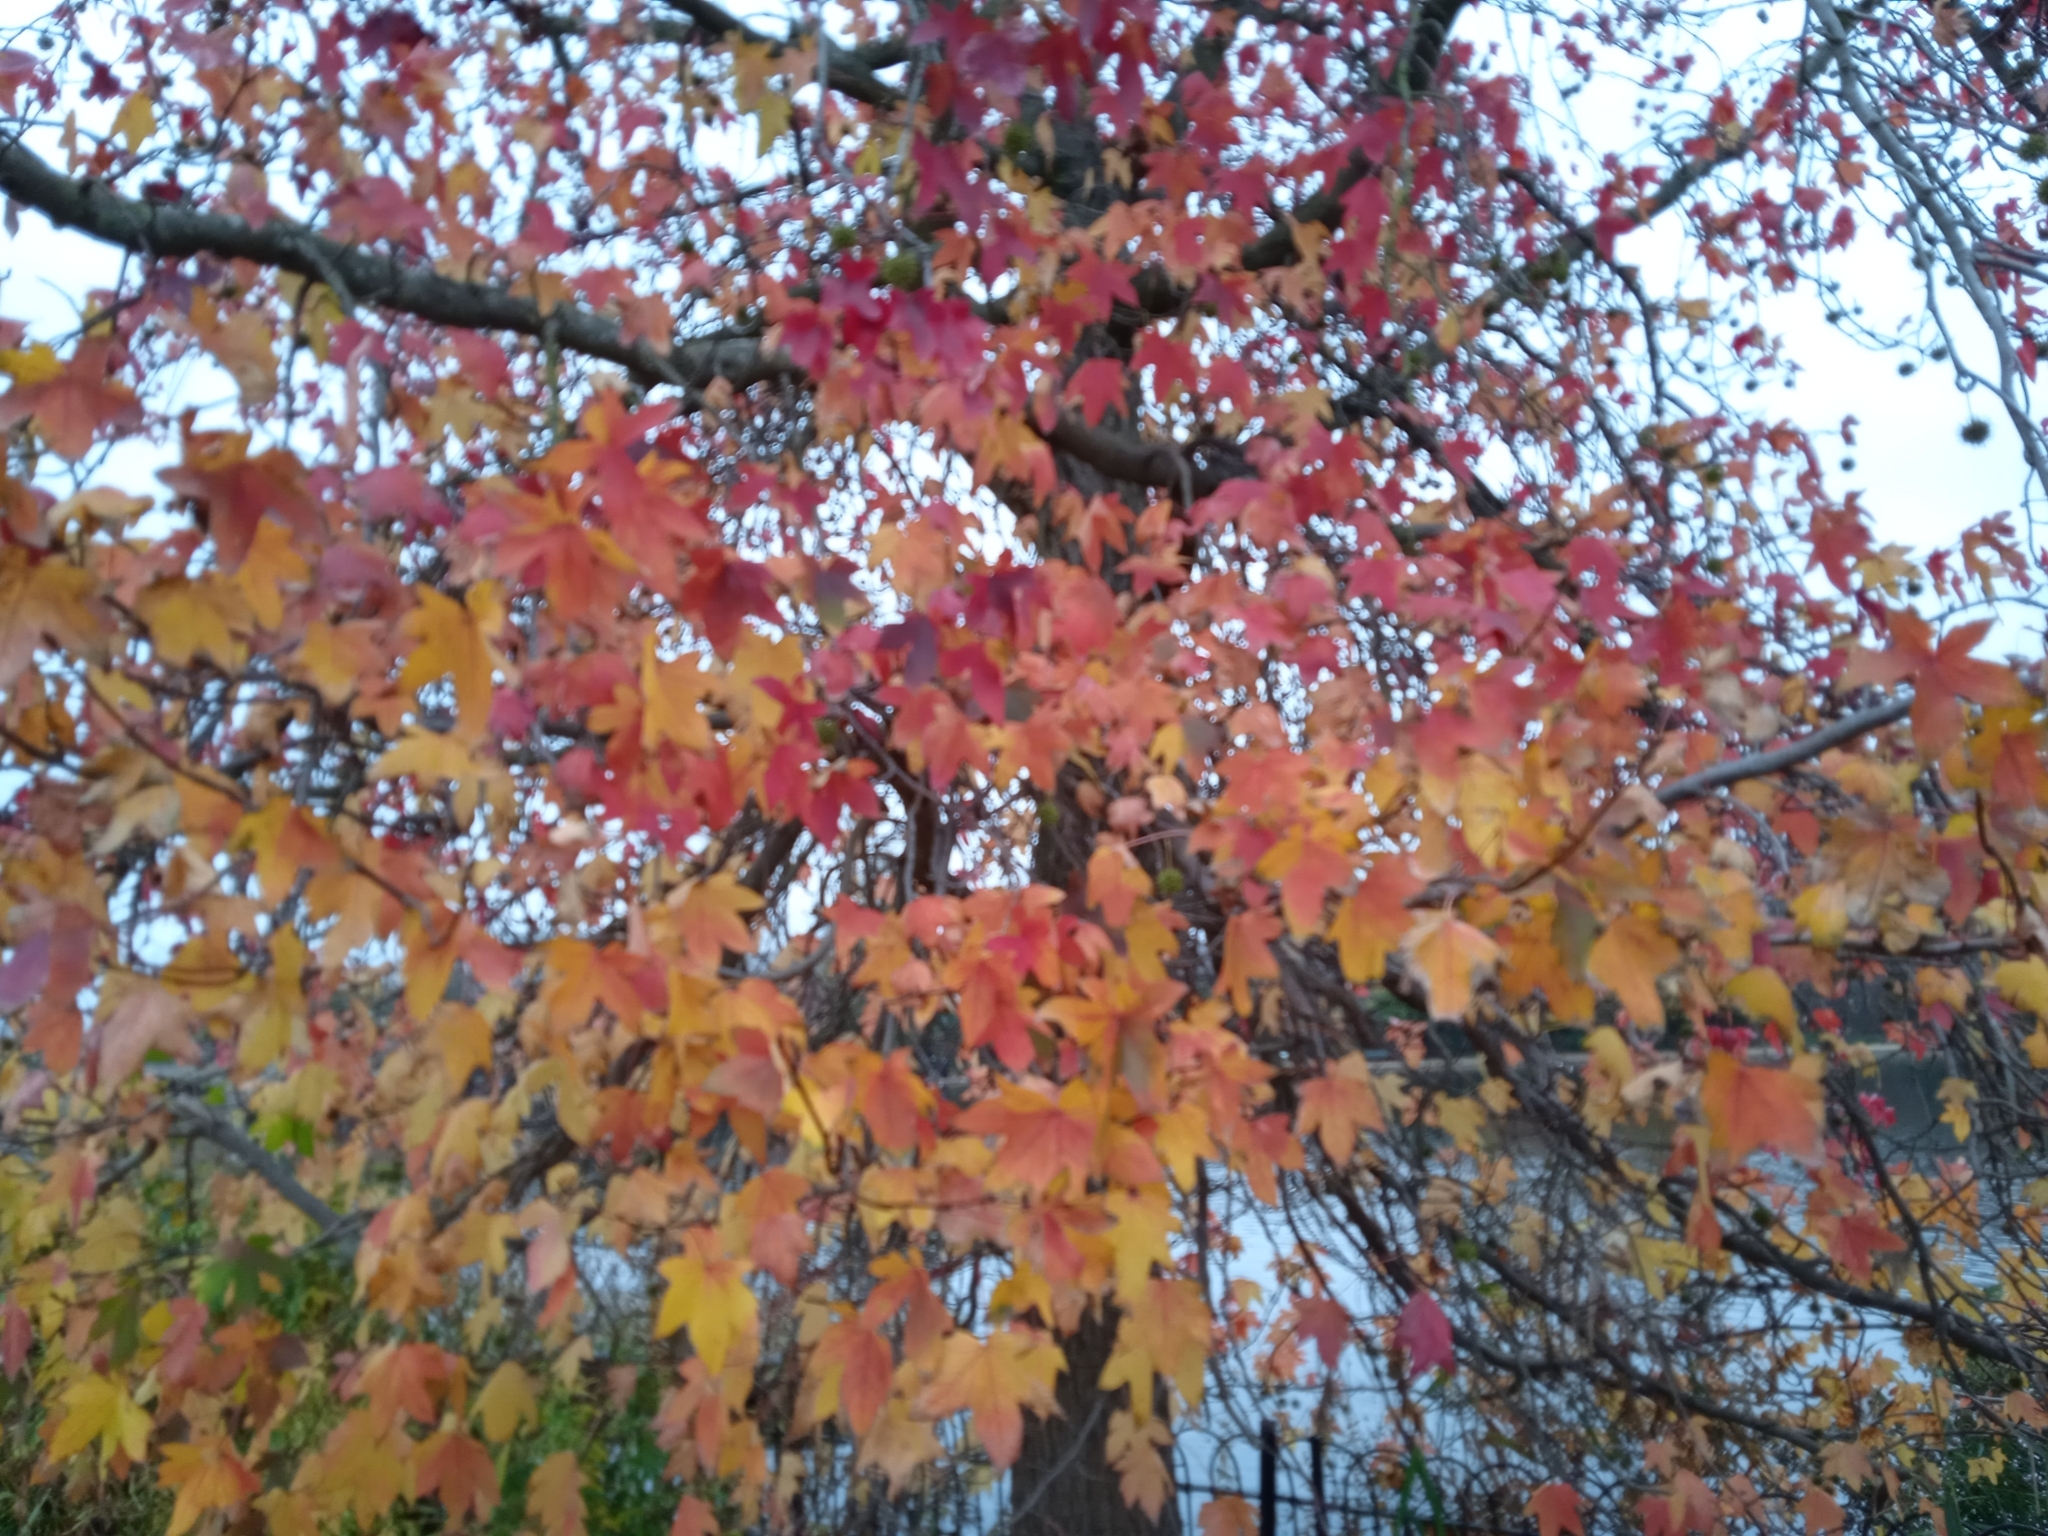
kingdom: Plantae
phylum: Tracheophyta
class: Magnoliopsida
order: Saxifragales
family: Altingiaceae
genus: Liquidambar
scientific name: Liquidambar styraciflua
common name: Sweet gum
